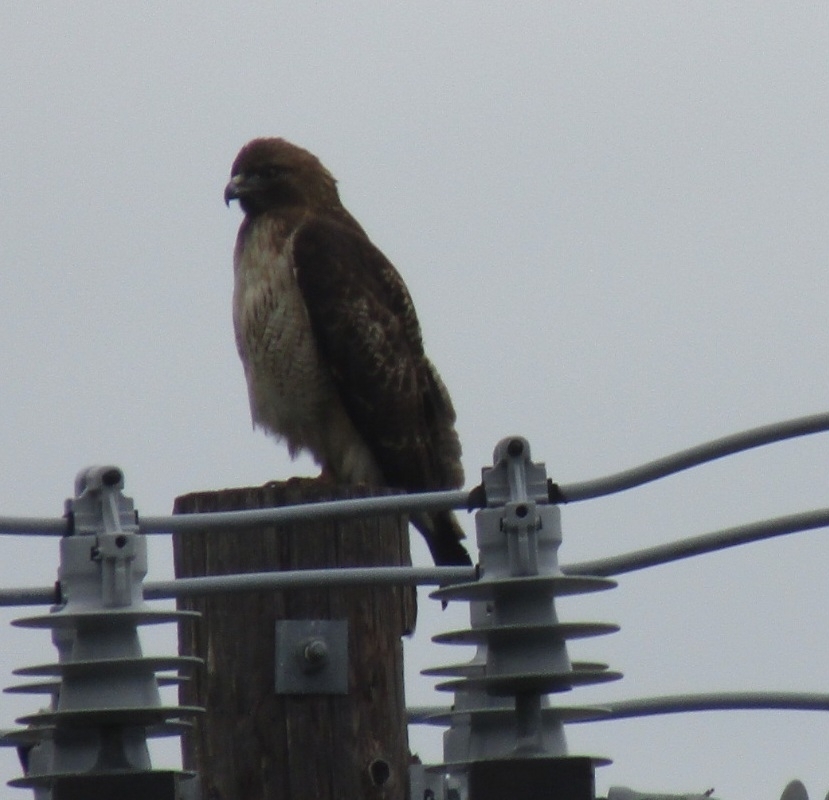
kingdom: Animalia
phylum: Chordata
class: Aves
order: Accipitriformes
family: Accipitridae
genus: Buteo
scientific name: Buteo jamaicensis
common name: Red-tailed hawk
